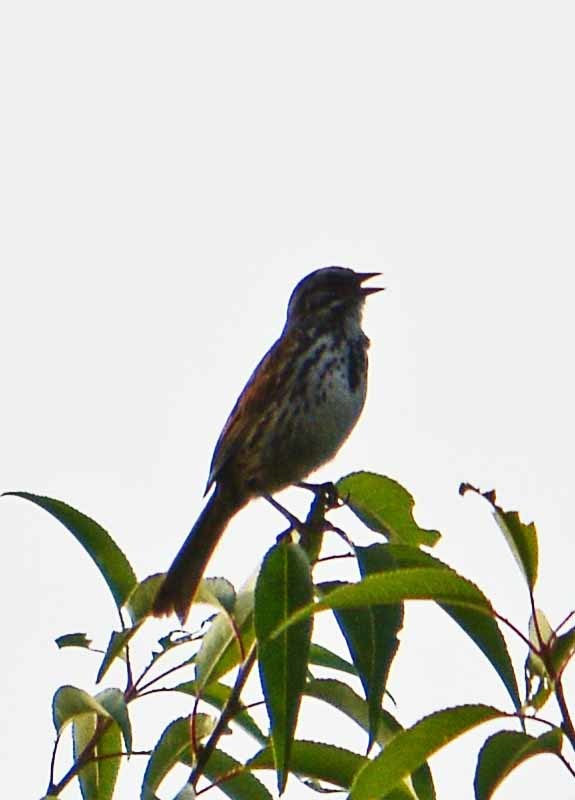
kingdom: Animalia
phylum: Chordata
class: Aves
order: Passeriformes
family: Passerellidae
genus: Melospiza
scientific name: Melospiza melodia
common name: Song sparrow
